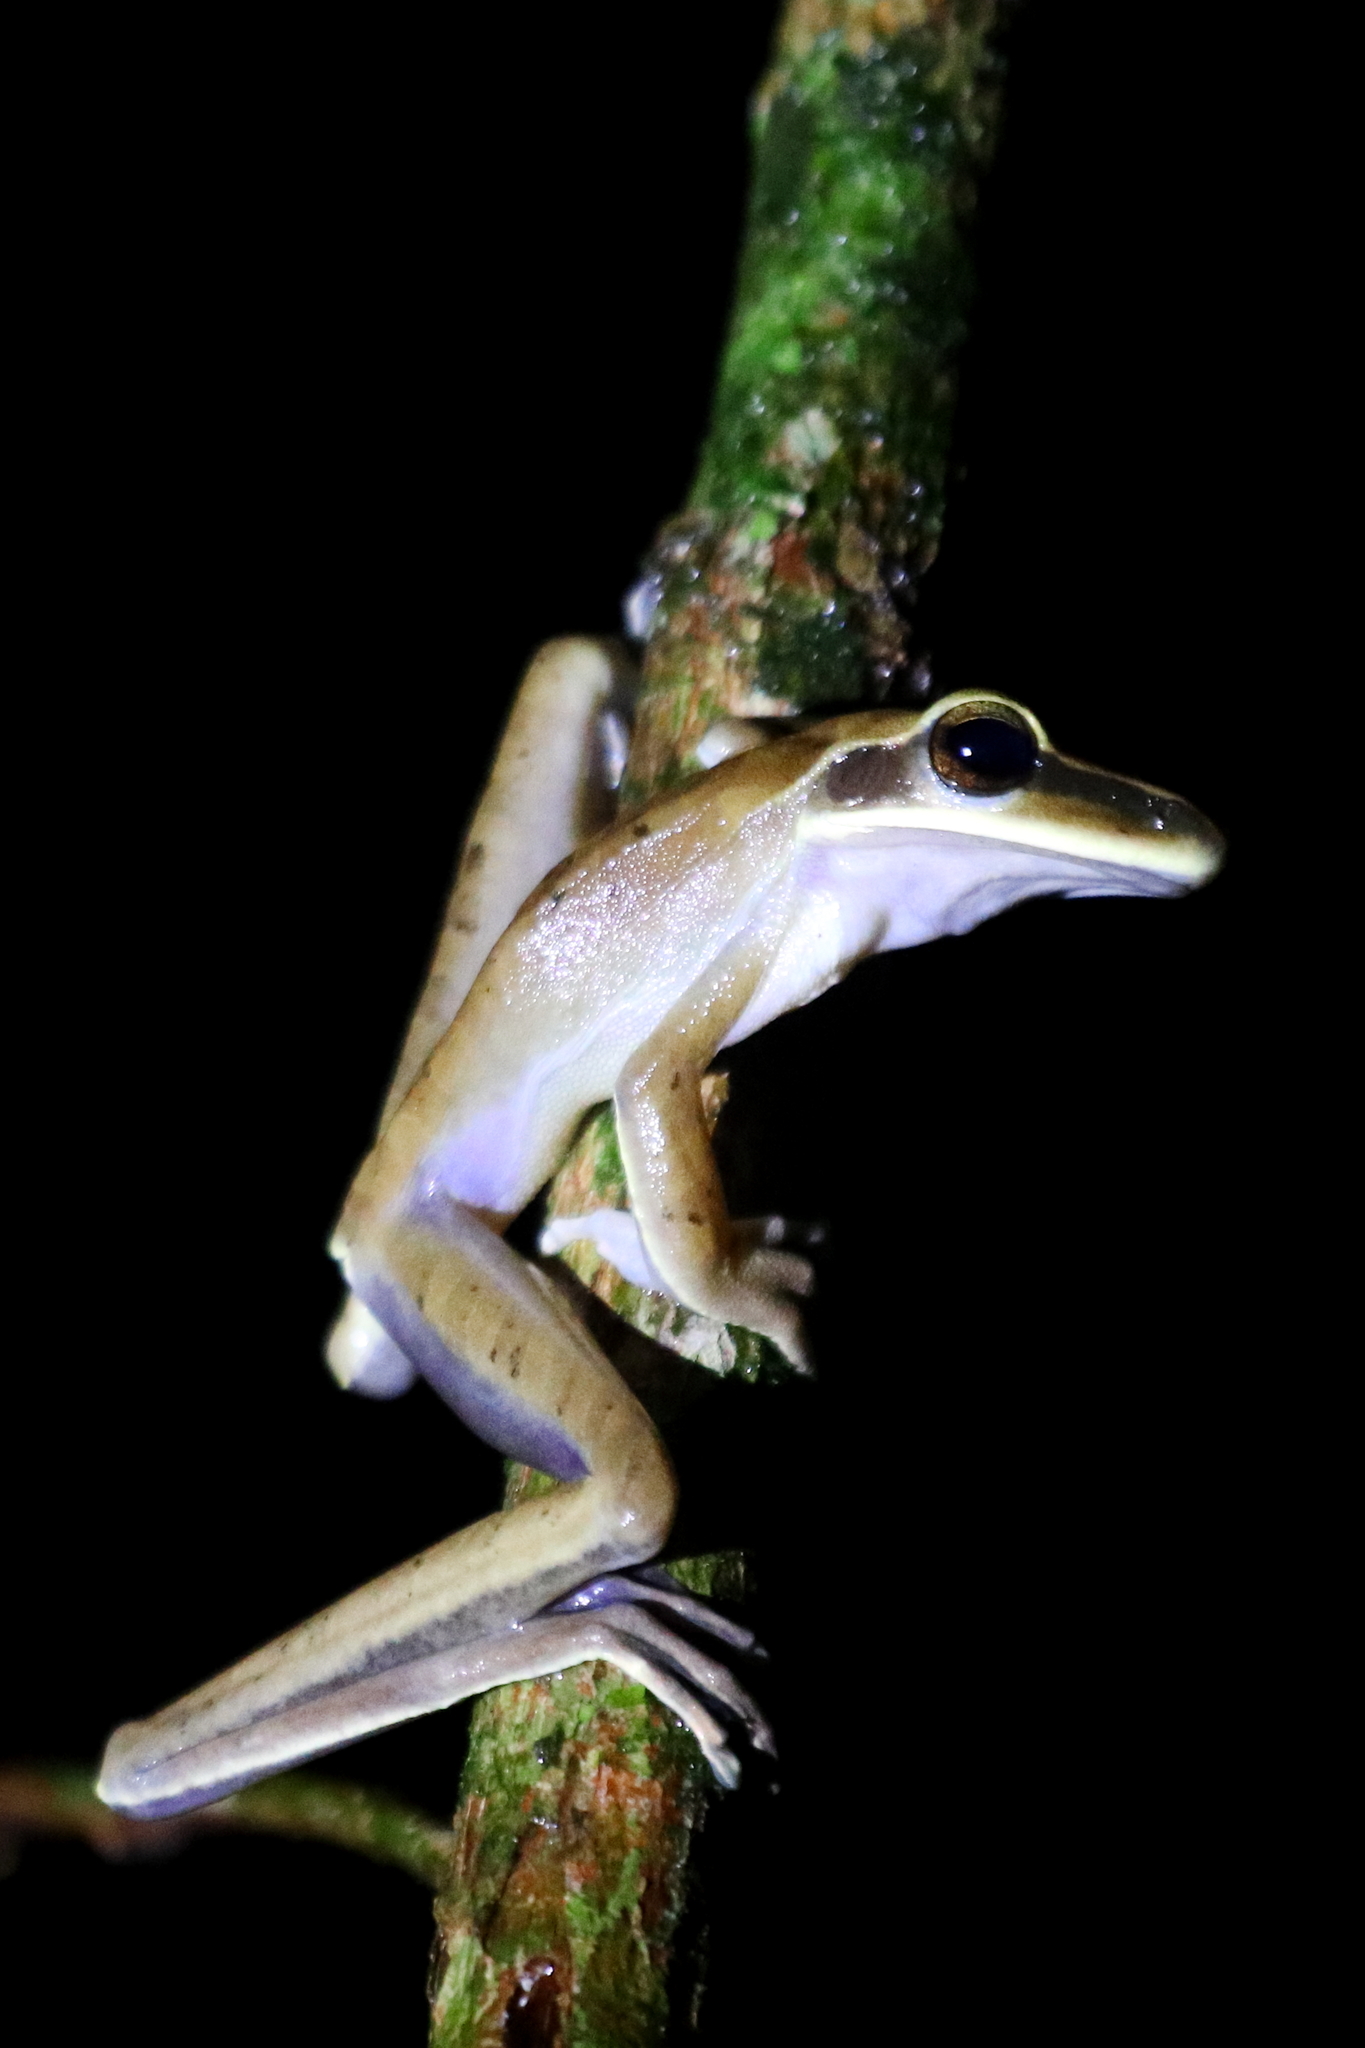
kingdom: Animalia
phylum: Chordata
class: Amphibia
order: Anura
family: Hylidae
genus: Boana
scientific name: Boana lanciformis
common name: Rana lanceolada commún
